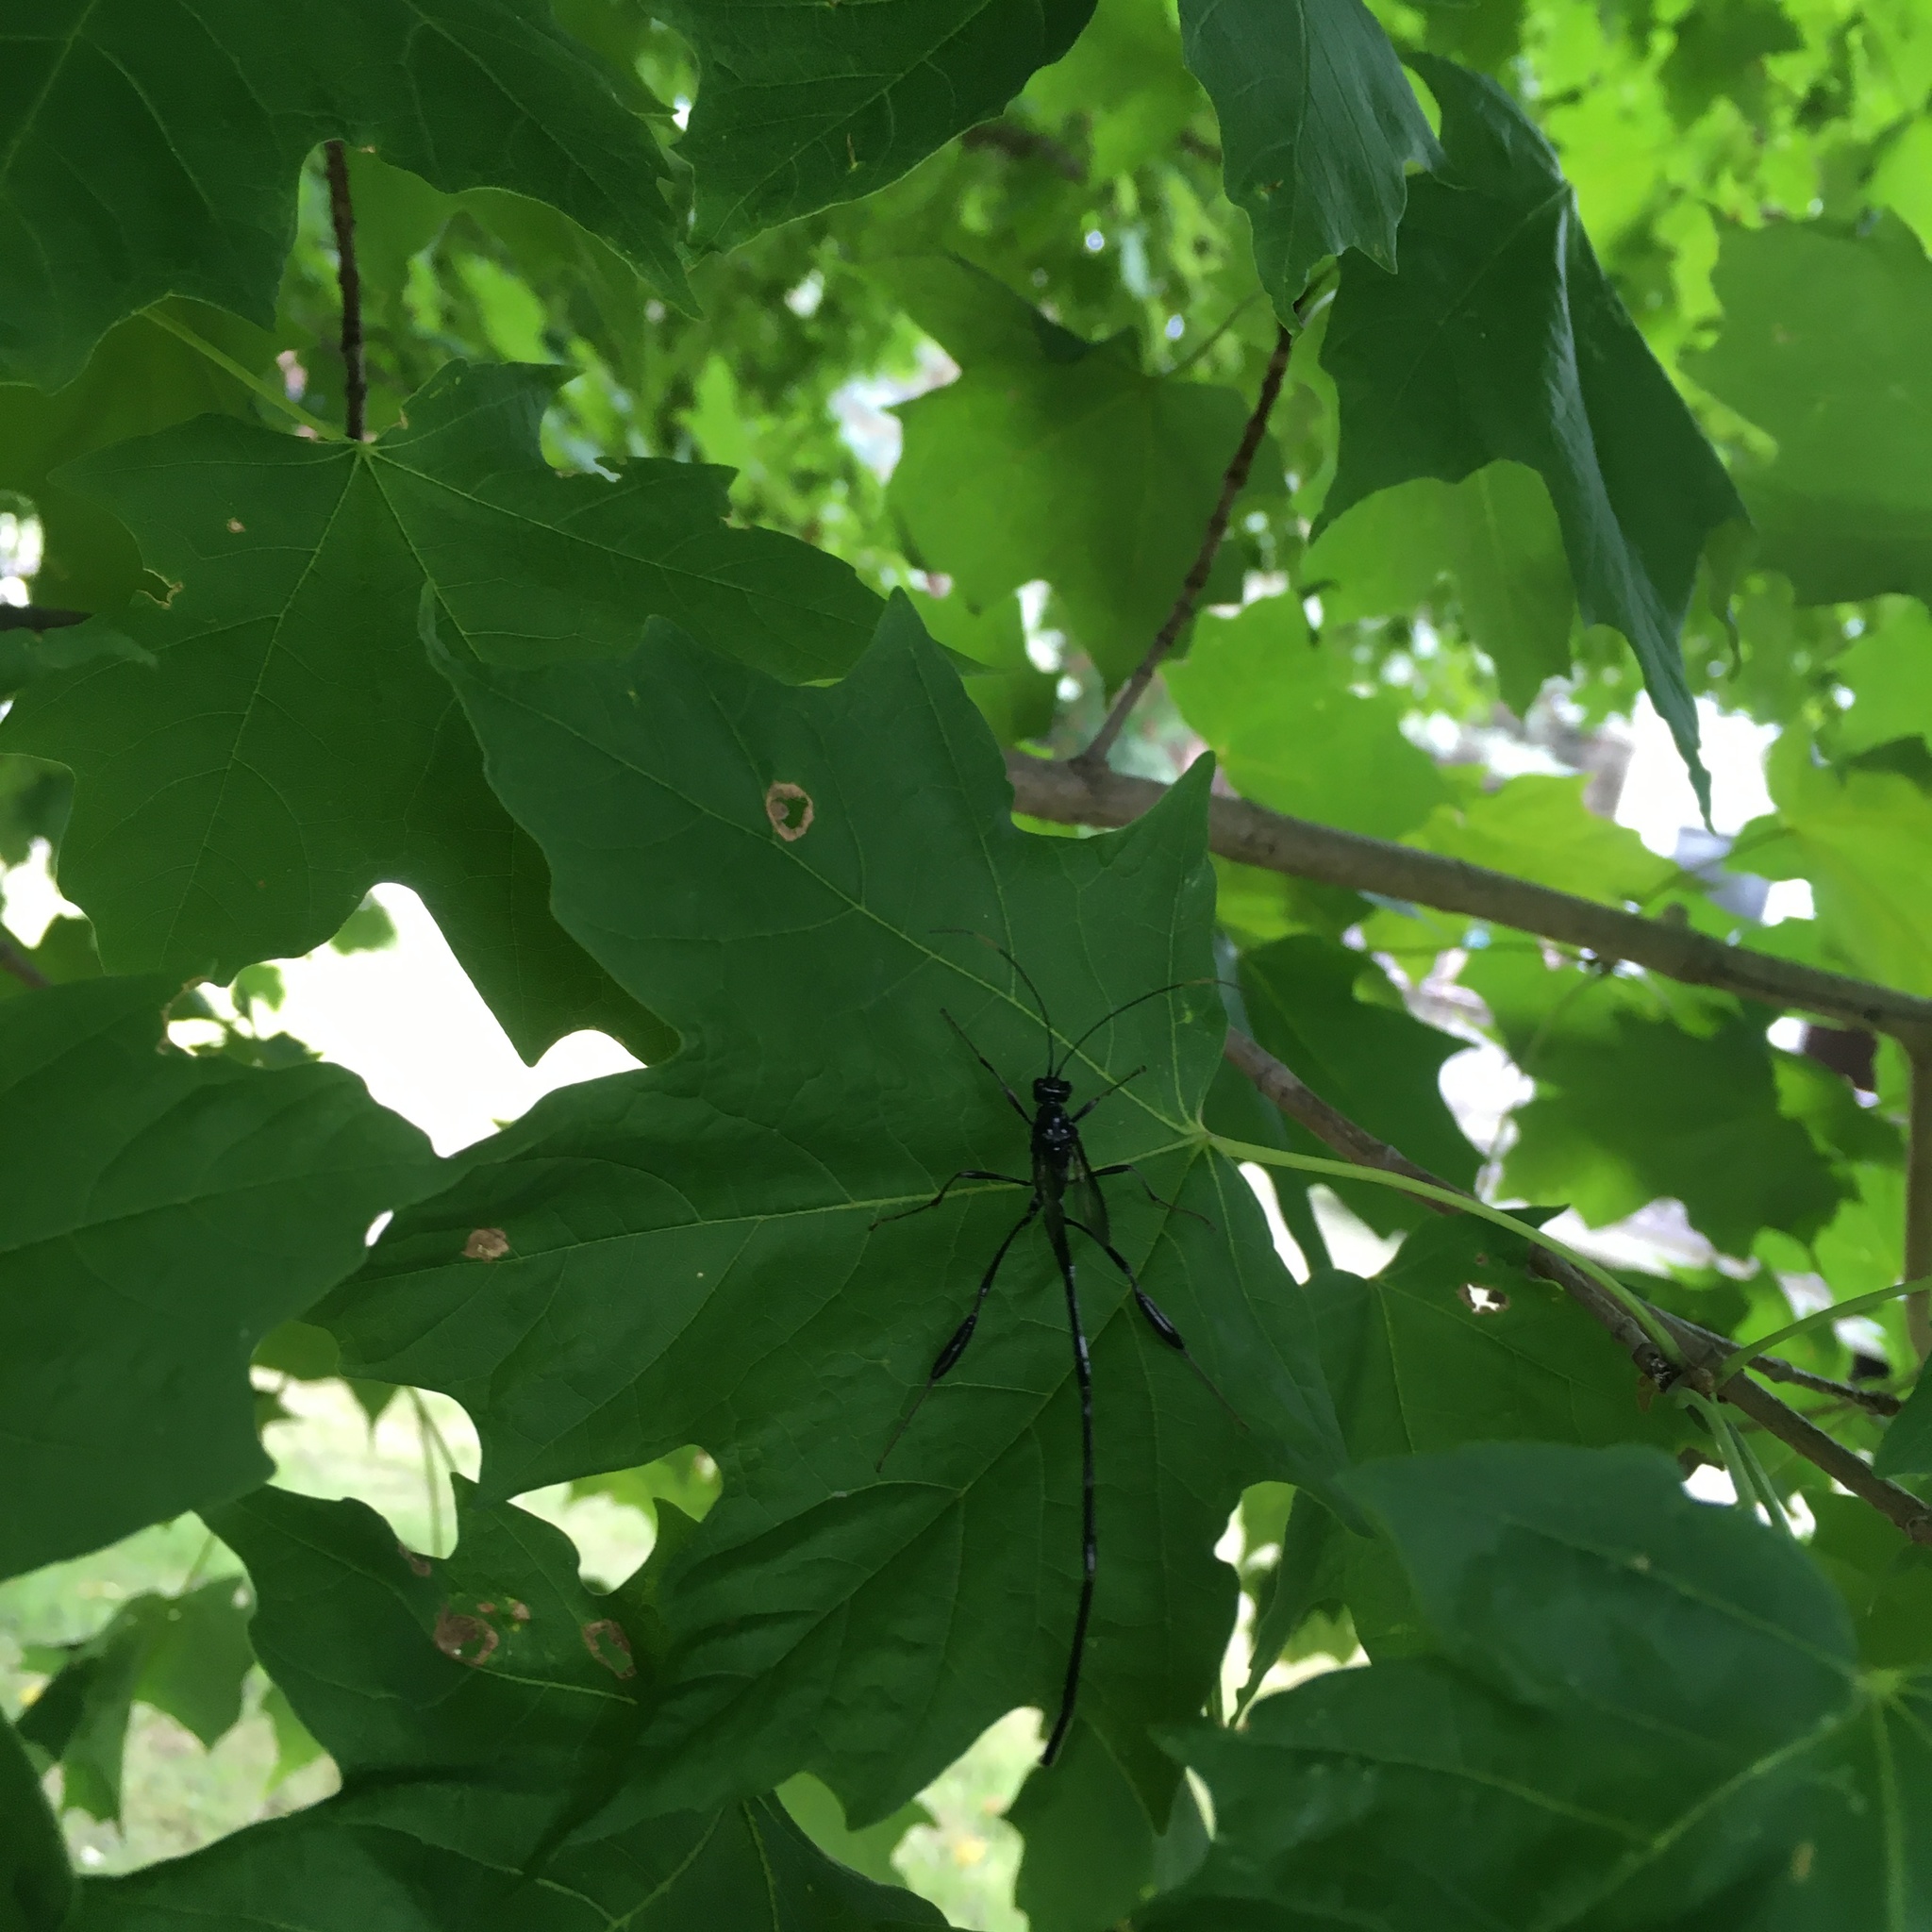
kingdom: Animalia
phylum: Arthropoda
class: Insecta
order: Hymenoptera
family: Pelecinidae
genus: Pelecinus
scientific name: Pelecinus polyturator
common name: American pelecinid wasp
